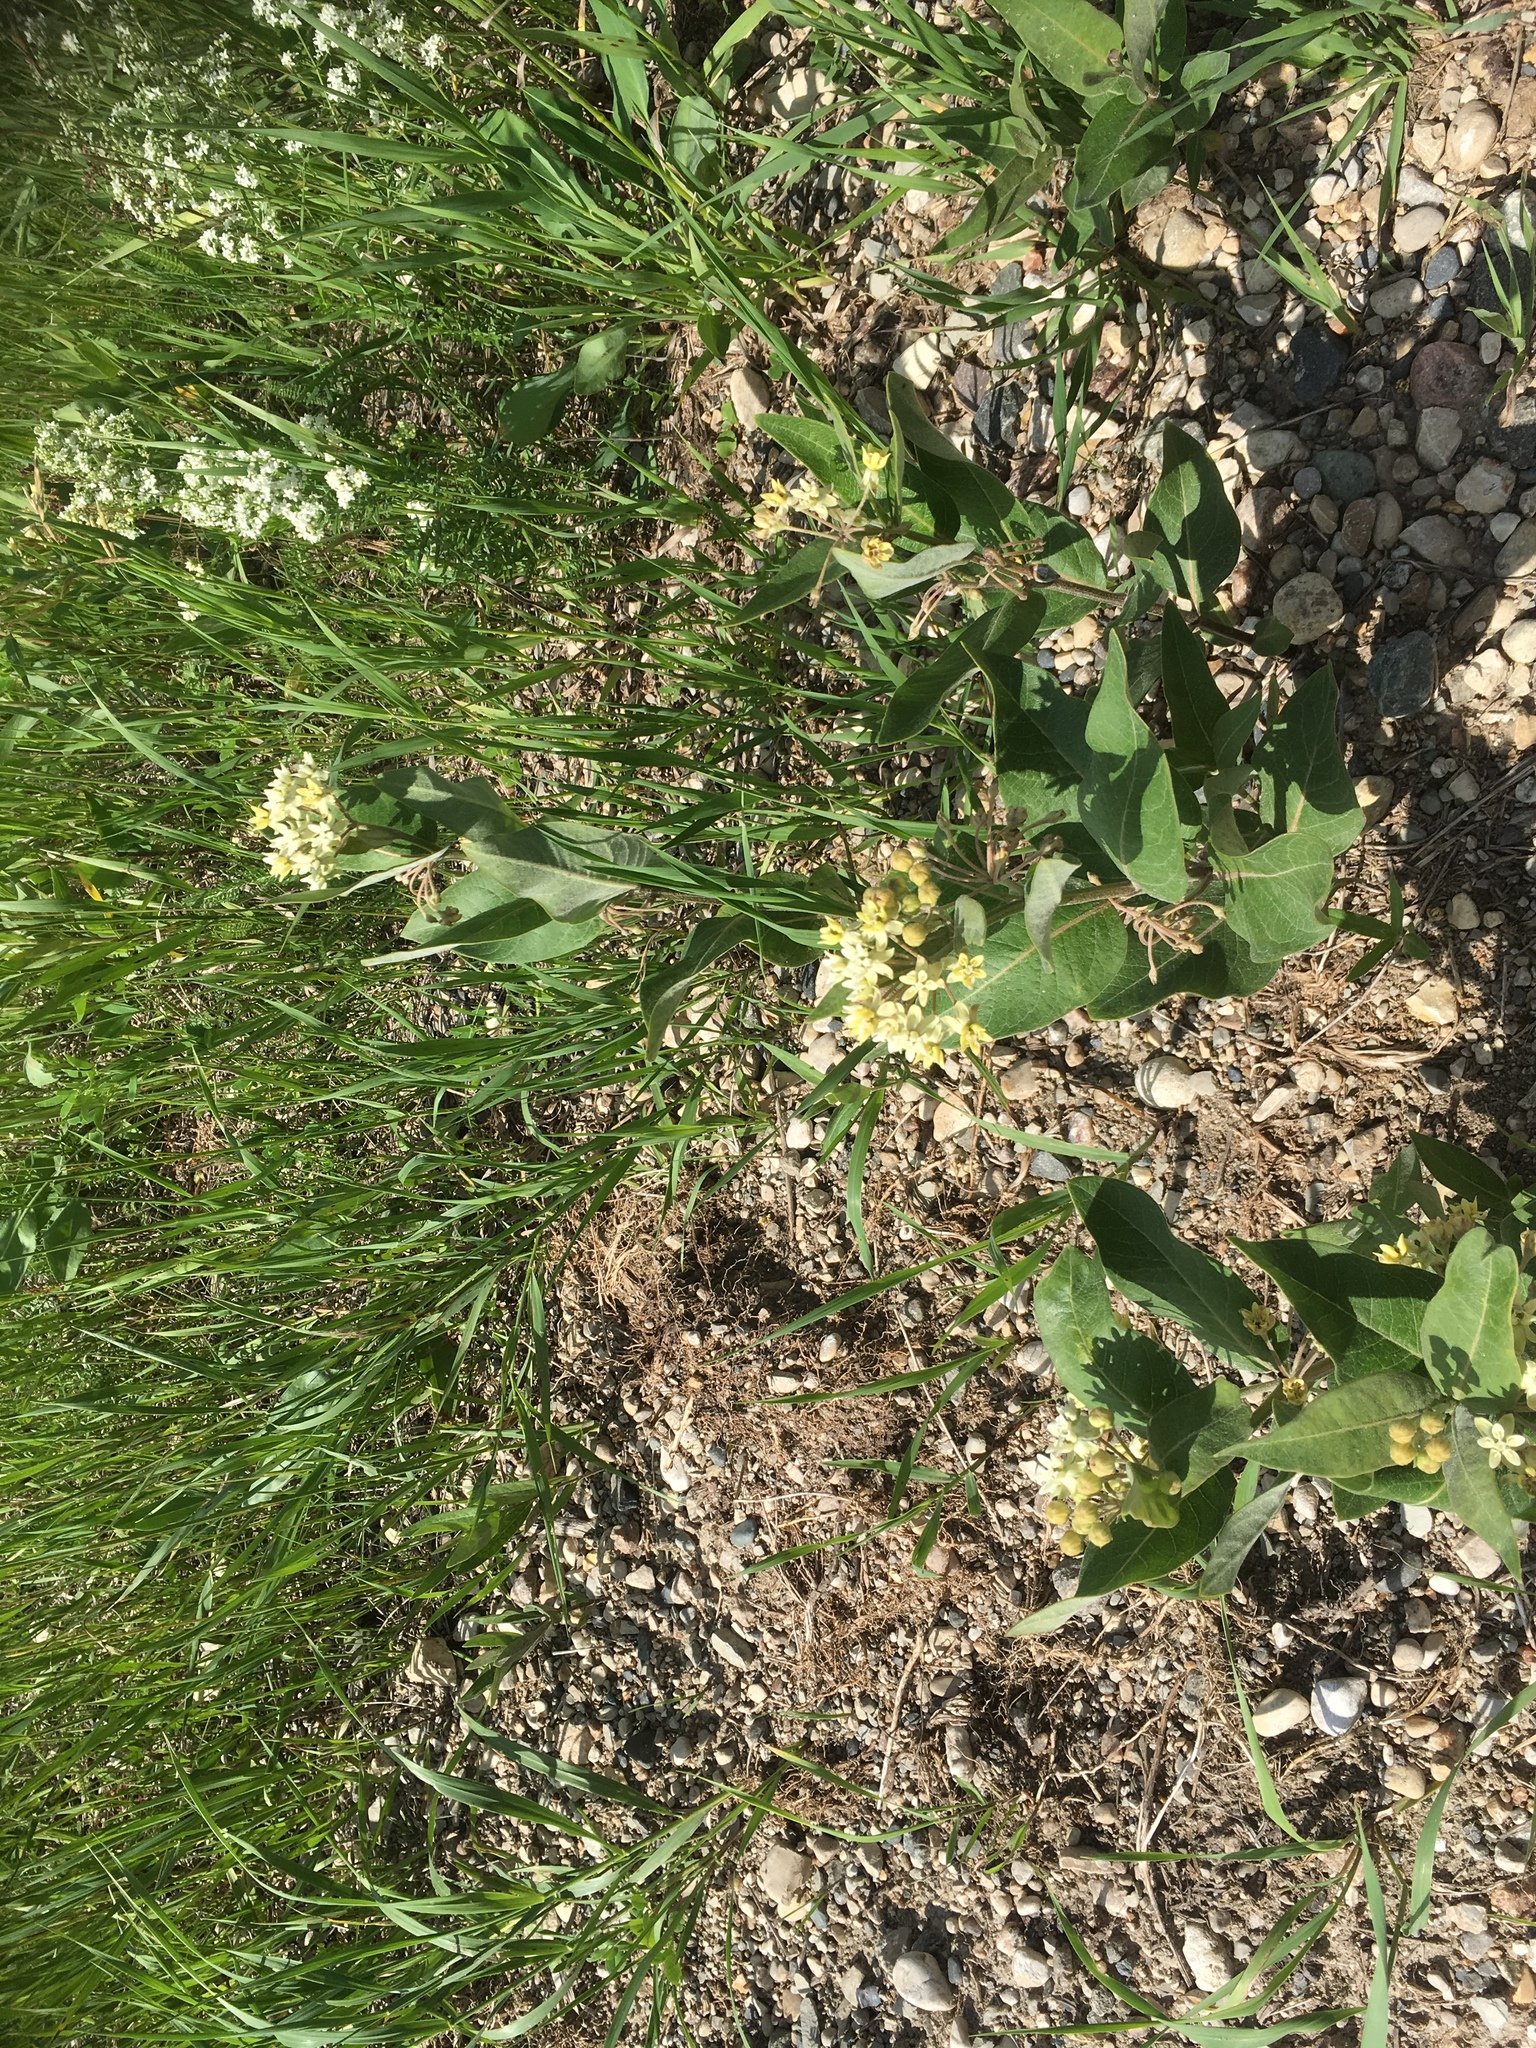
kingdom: Plantae
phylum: Tracheophyta
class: Magnoliopsida
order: Gentianales
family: Apocynaceae
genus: Asclepias
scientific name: Asclepias ovalifolia
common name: Dwarf milkweed
